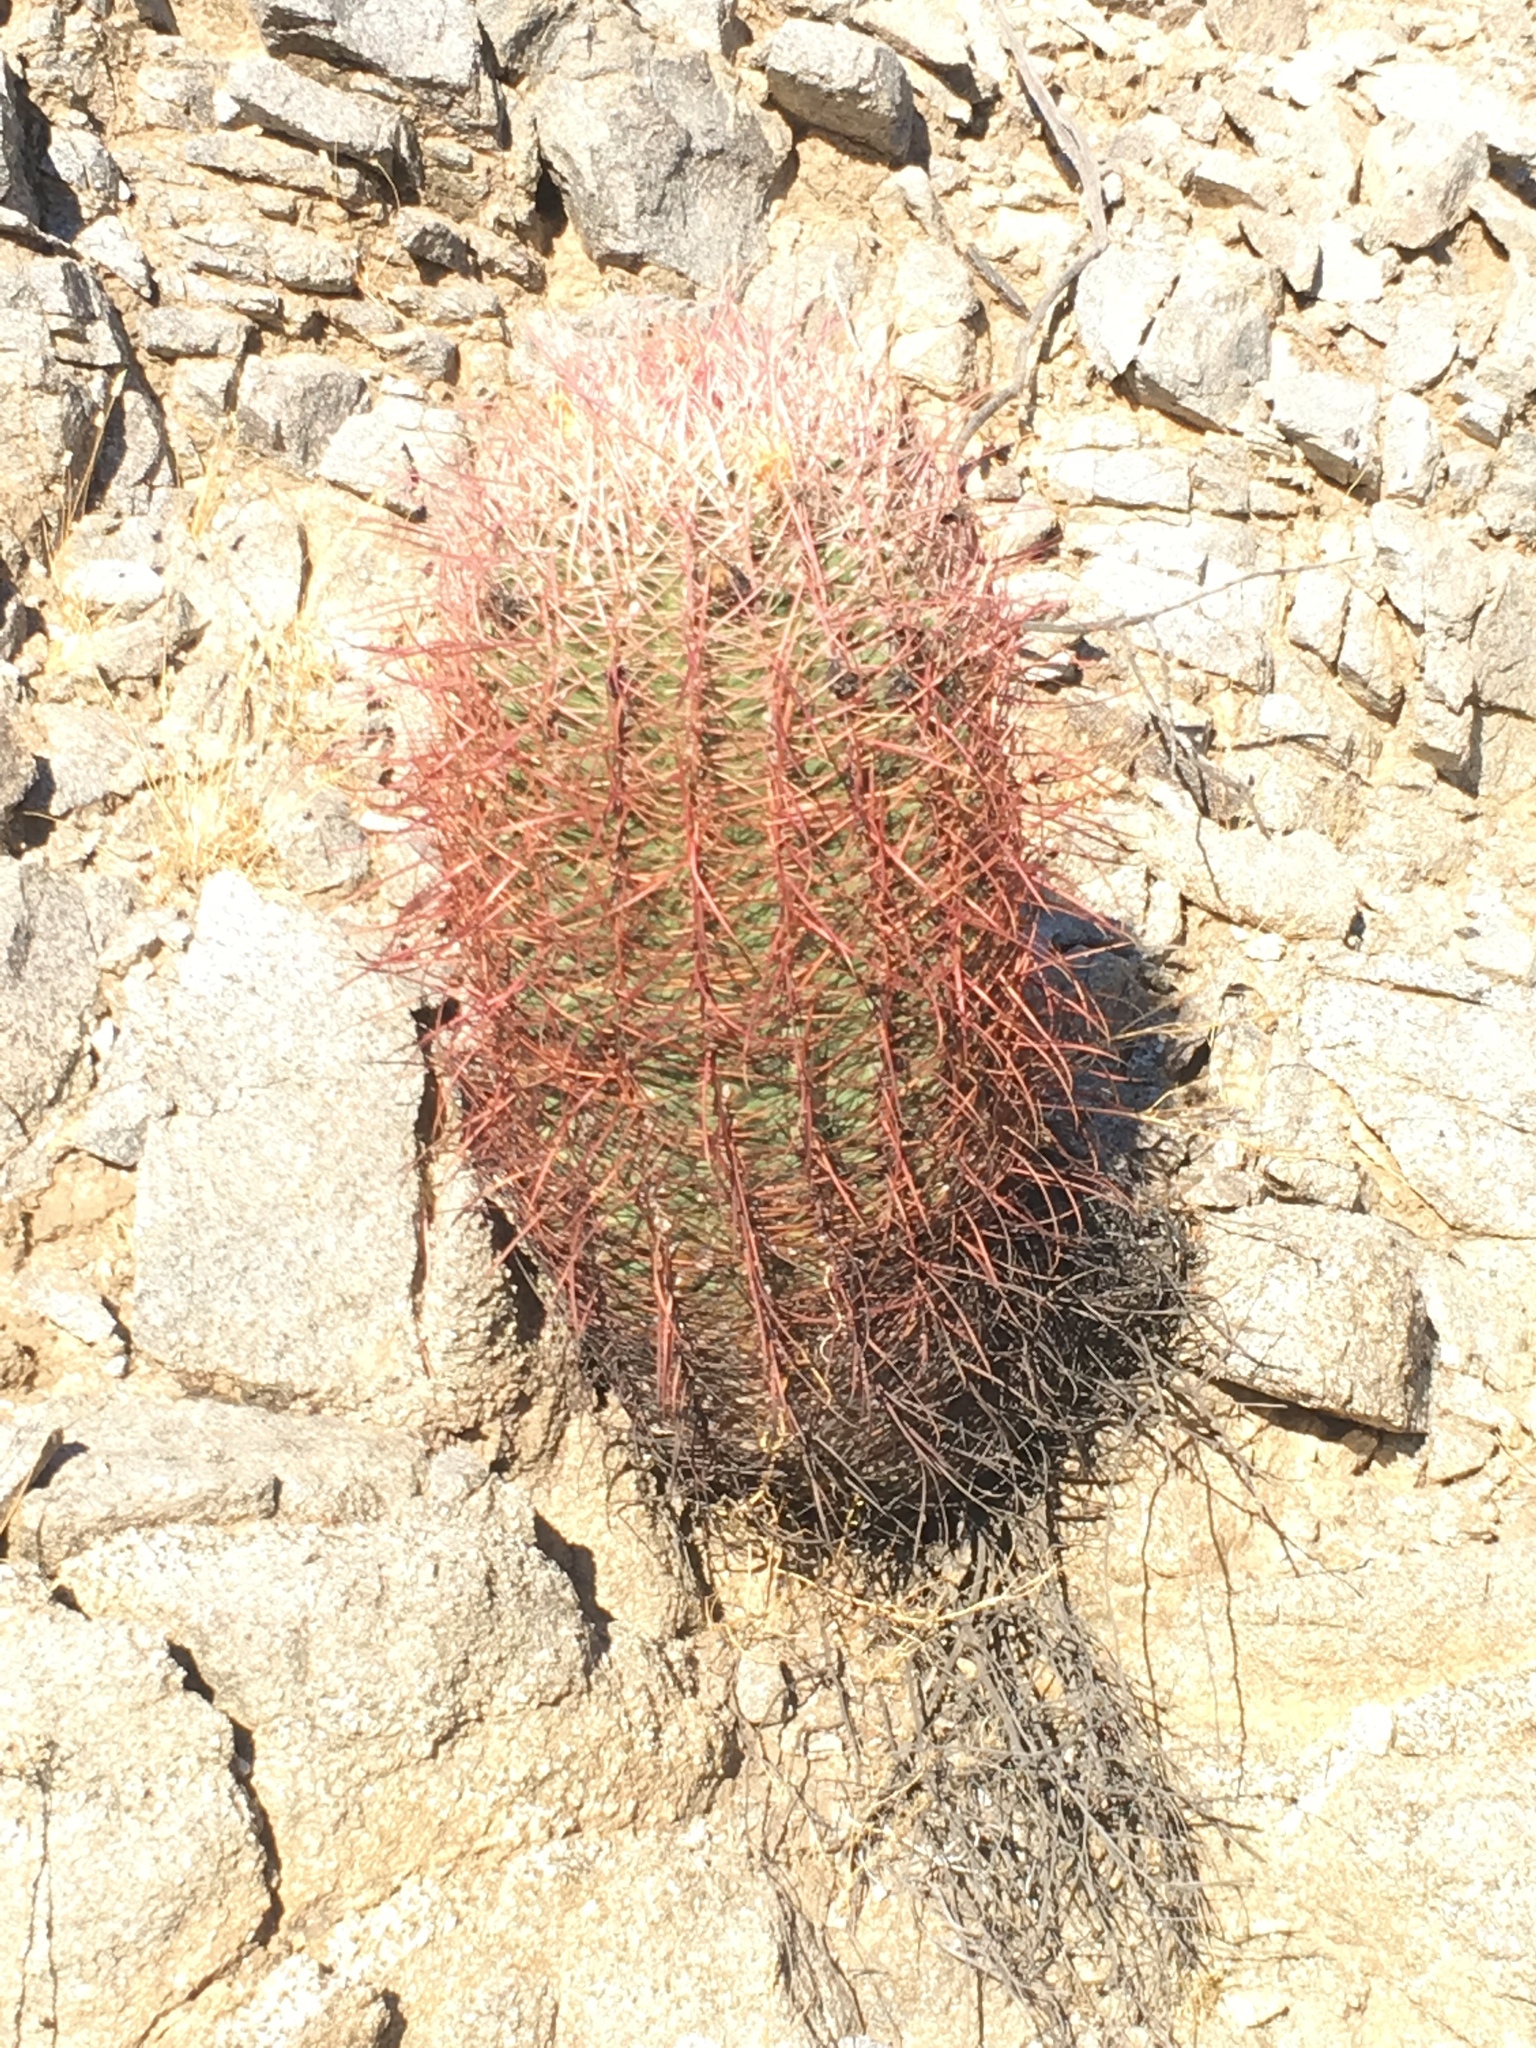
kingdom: Plantae
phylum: Tracheophyta
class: Magnoliopsida
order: Caryophyllales
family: Cactaceae
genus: Ferocactus
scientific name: Ferocactus cylindraceus
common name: California barrel cactus
